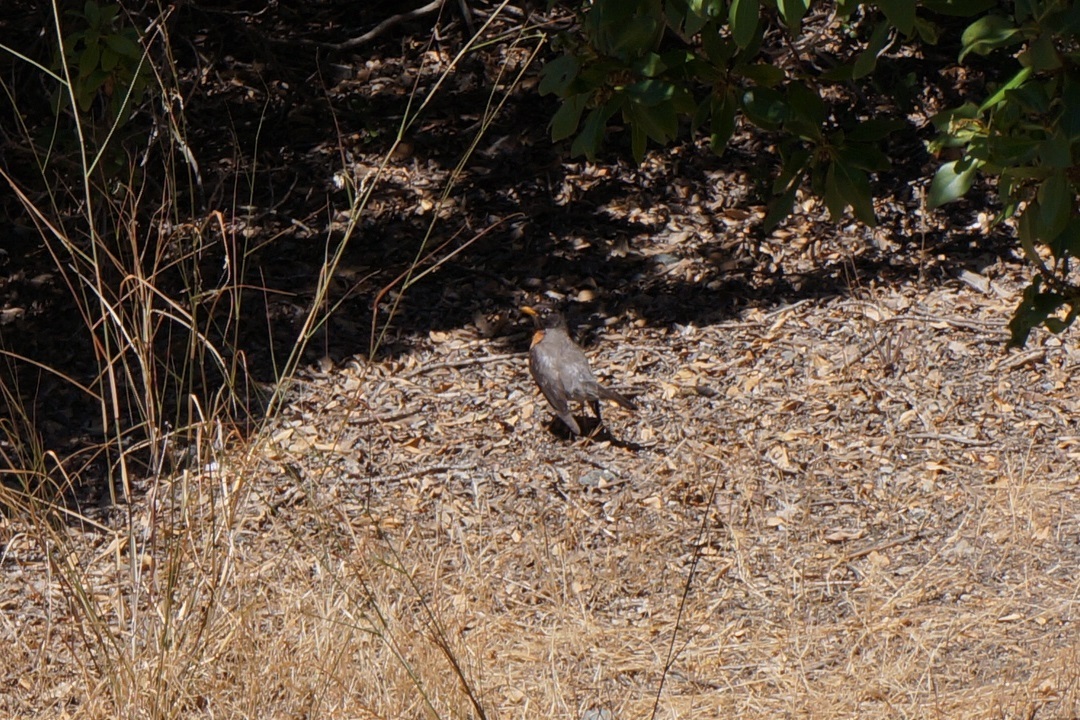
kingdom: Animalia
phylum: Chordata
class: Aves
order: Passeriformes
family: Turdidae
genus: Turdus
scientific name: Turdus migratorius
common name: American robin
